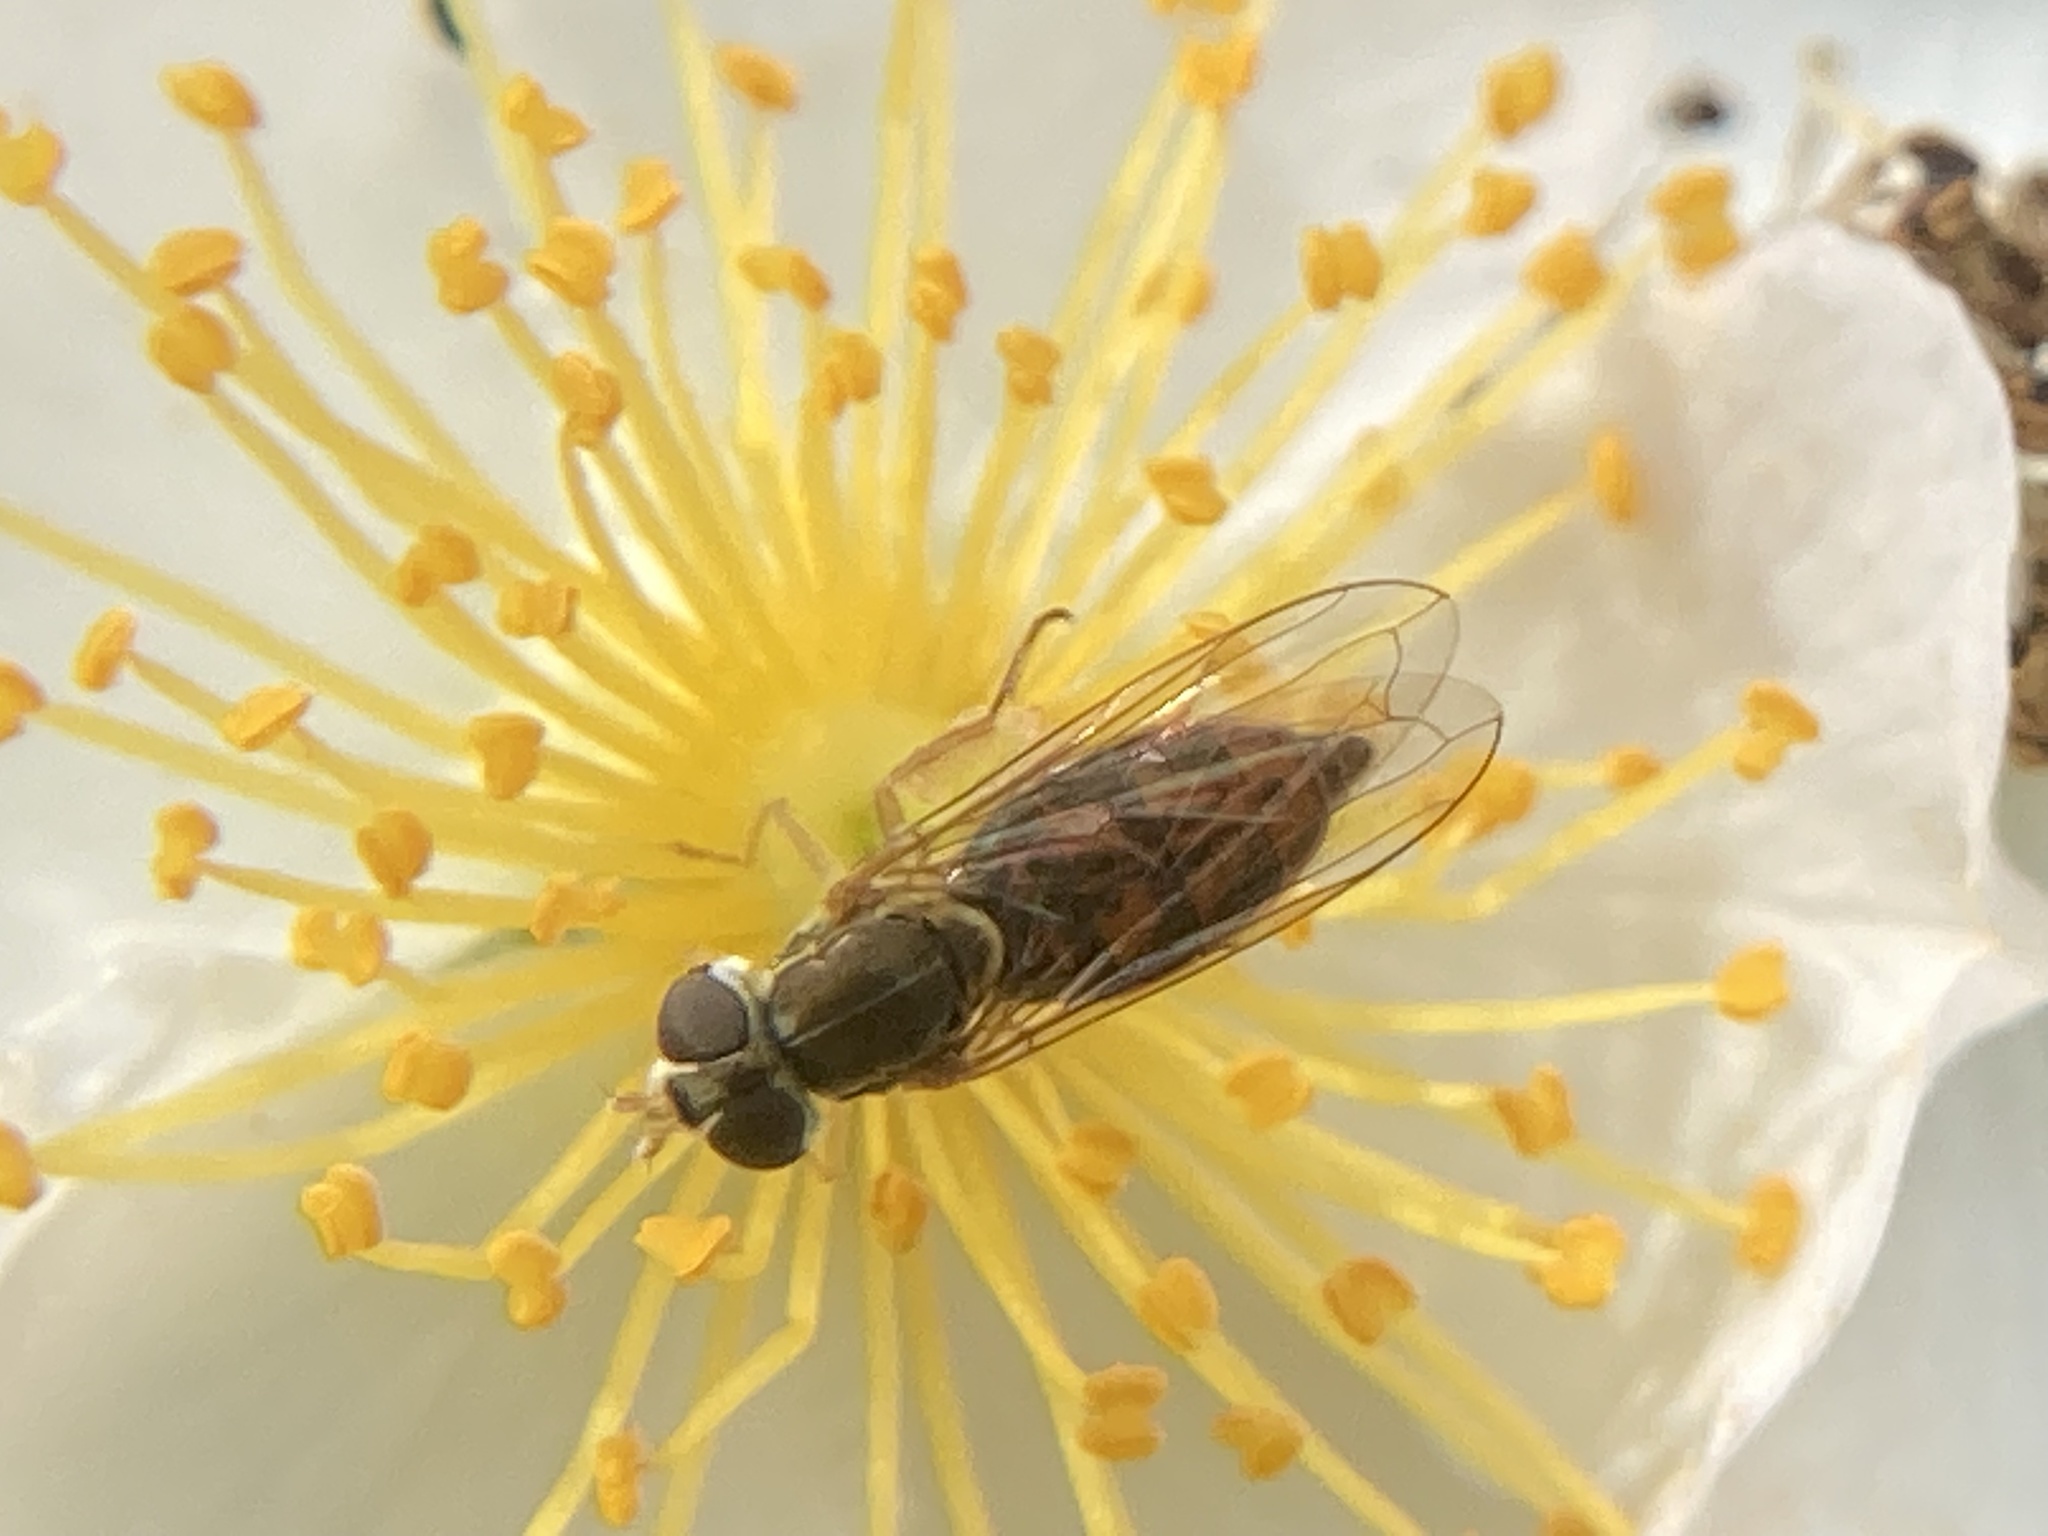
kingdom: Animalia
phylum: Arthropoda
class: Insecta
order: Diptera
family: Syrphidae
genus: Toxomerus
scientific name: Toxomerus marginatus
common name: Syrphid fly
